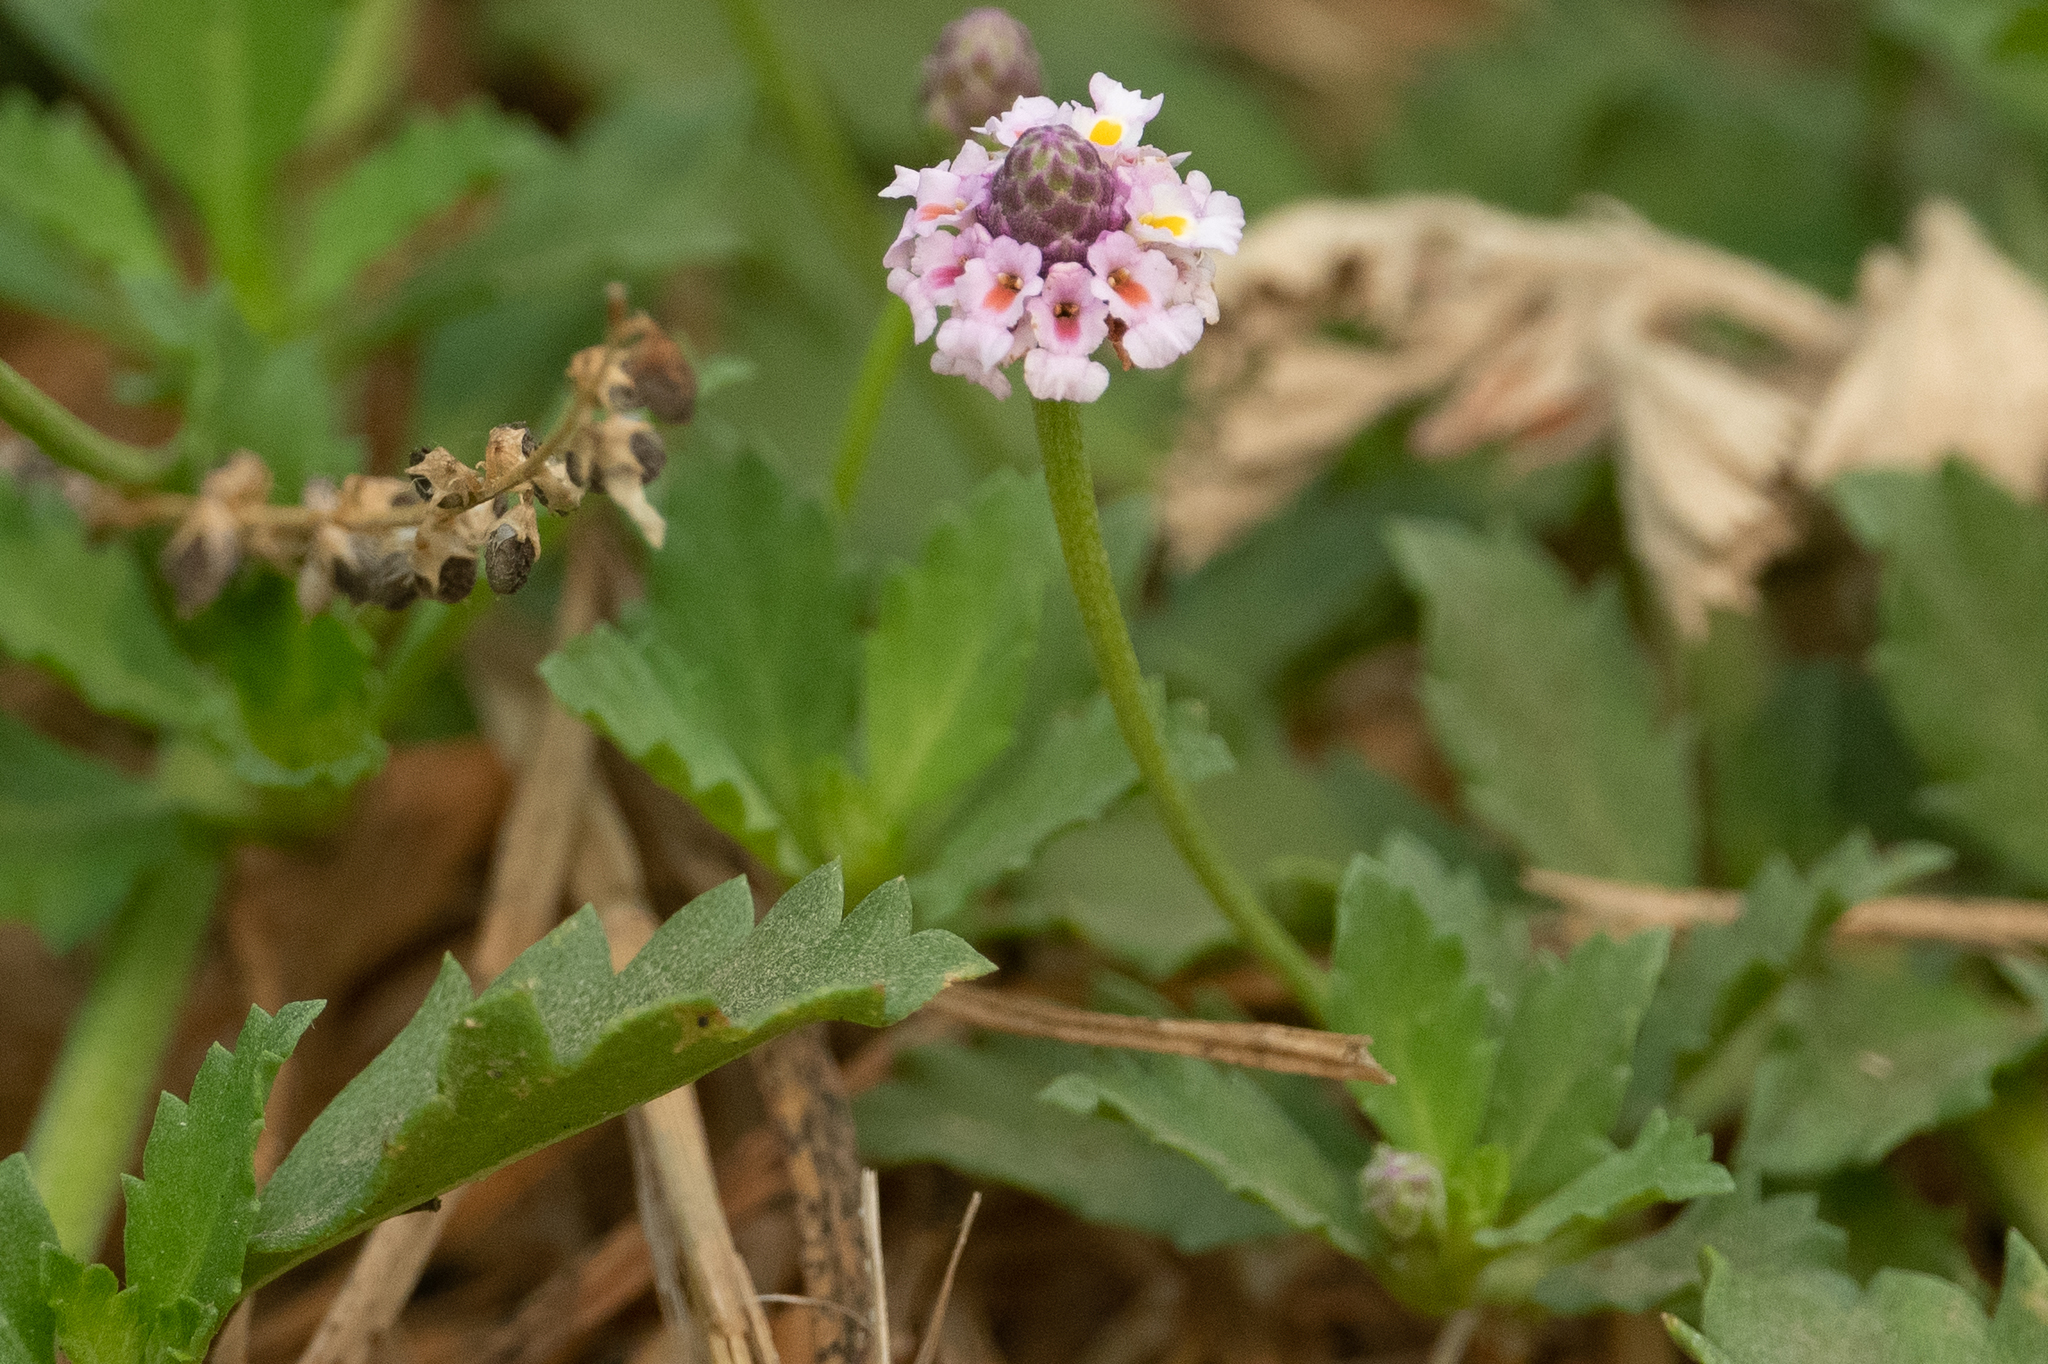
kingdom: Plantae
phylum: Tracheophyta
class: Magnoliopsida
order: Lamiales
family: Verbenaceae
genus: Phyla
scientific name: Phyla nodiflora
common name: Frogfruit
